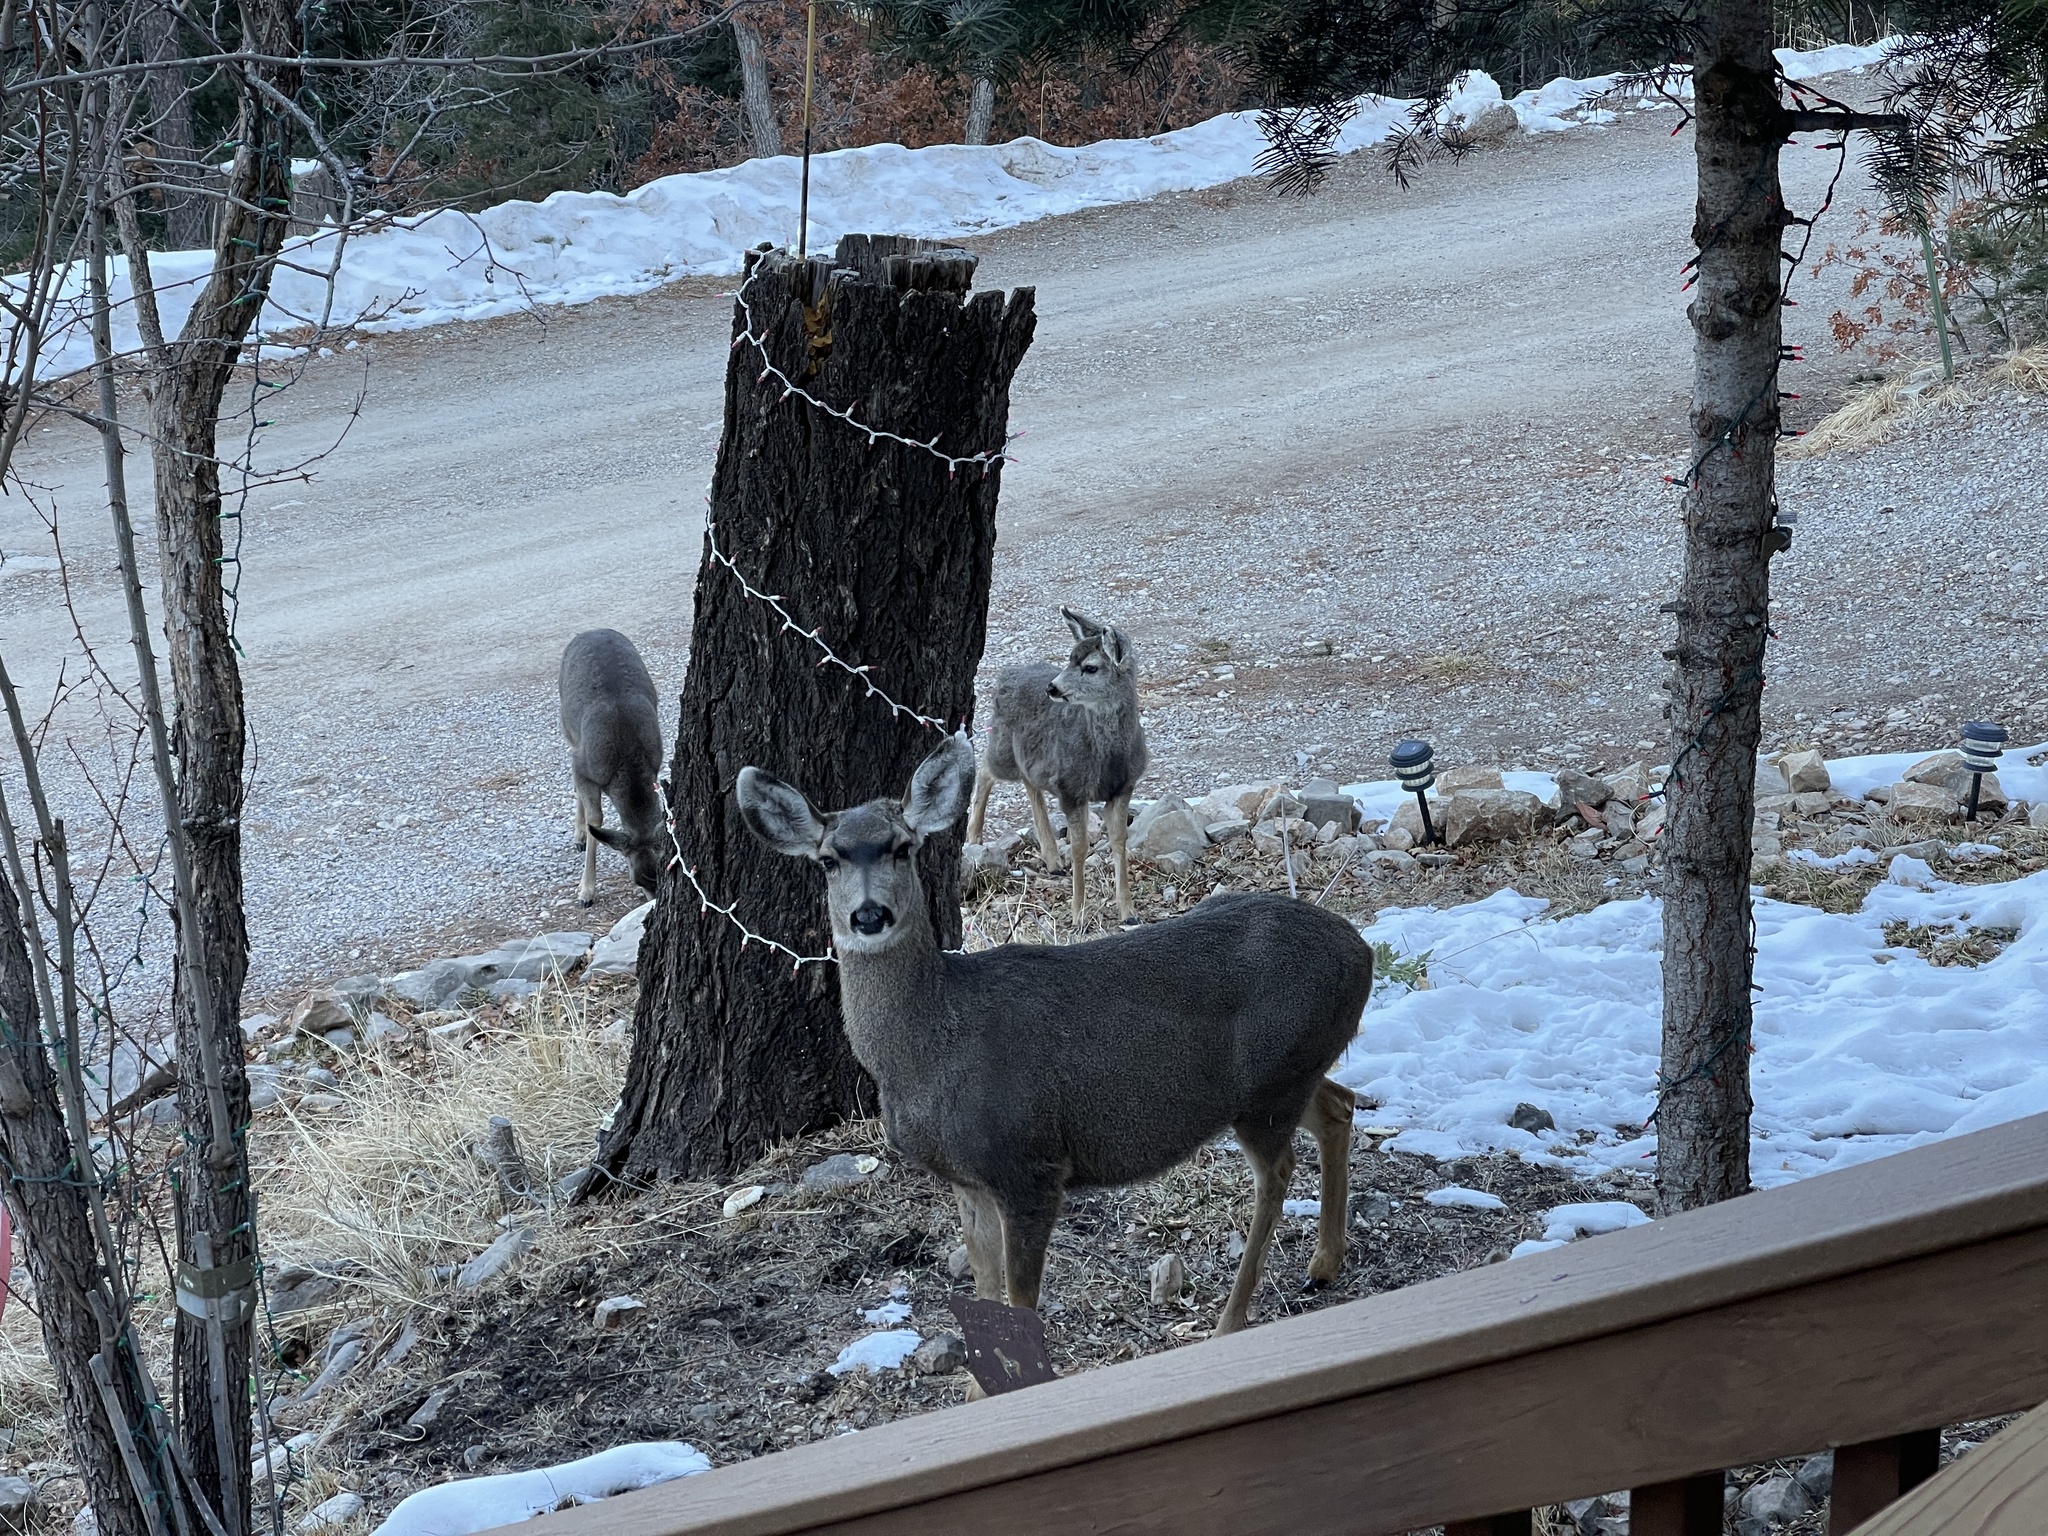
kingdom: Animalia
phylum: Chordata
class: Mammalia
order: Artiodactyla
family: Cervidae
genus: Odocoileus
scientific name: Odocoileus hemionus
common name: Mule deer
